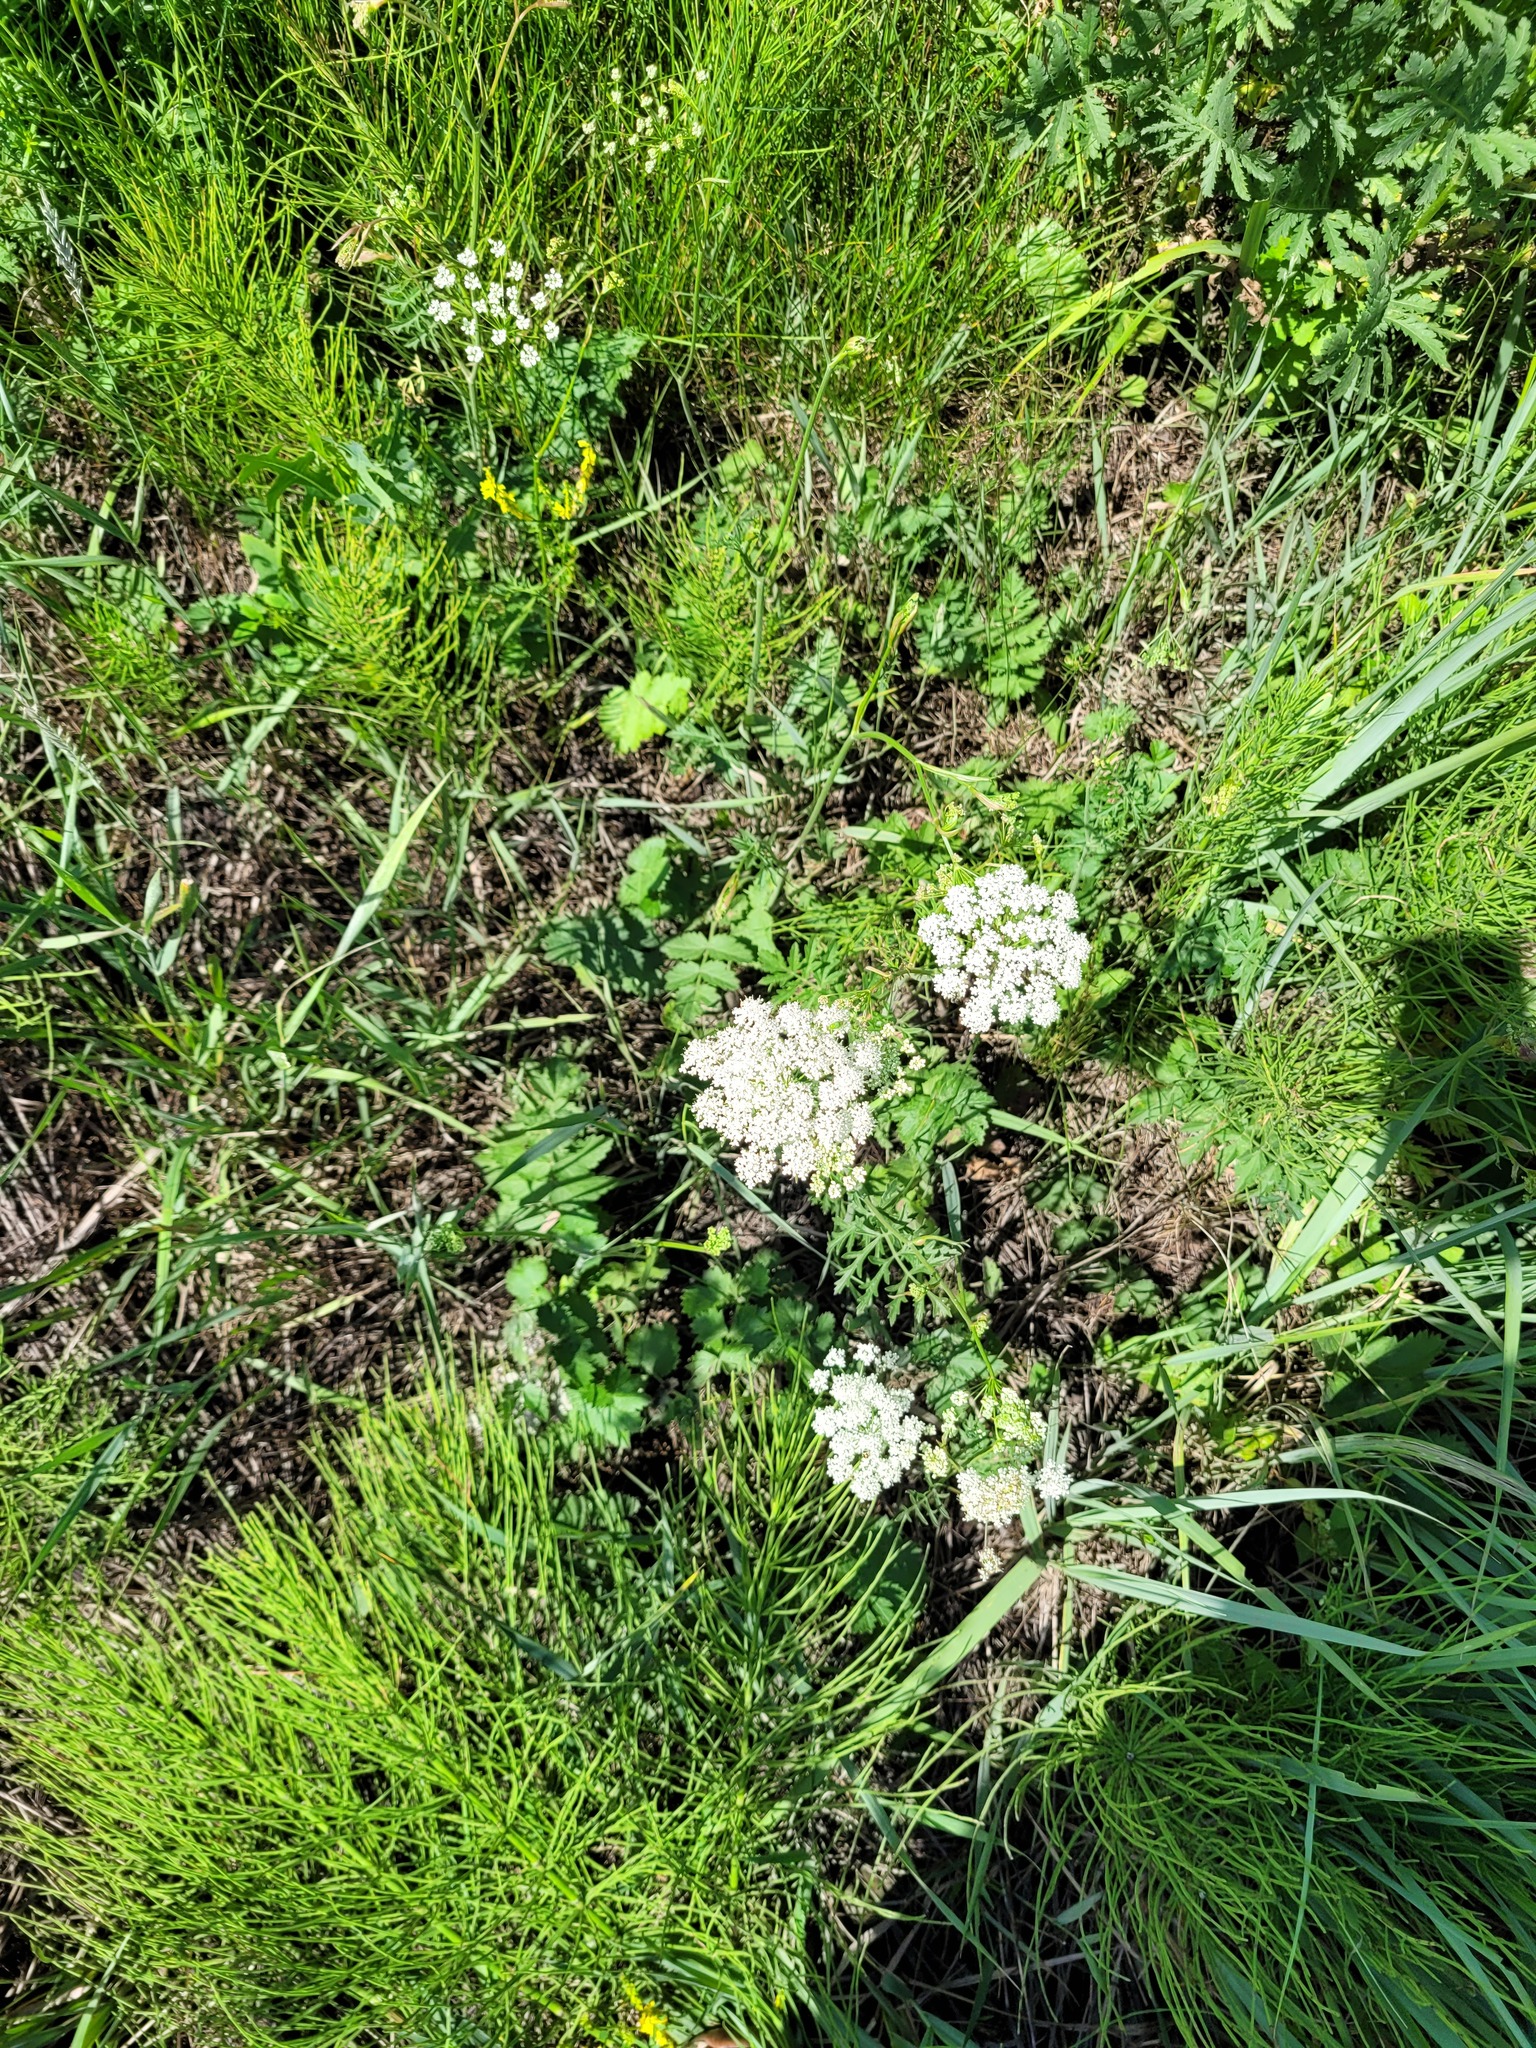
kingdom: Plantae
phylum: Tracheophyta
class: Magnoliopsida
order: Apiales
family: Apiaceae
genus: Pimpinella
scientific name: Pimpinella saxifraga
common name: Burnet-saxifrage
